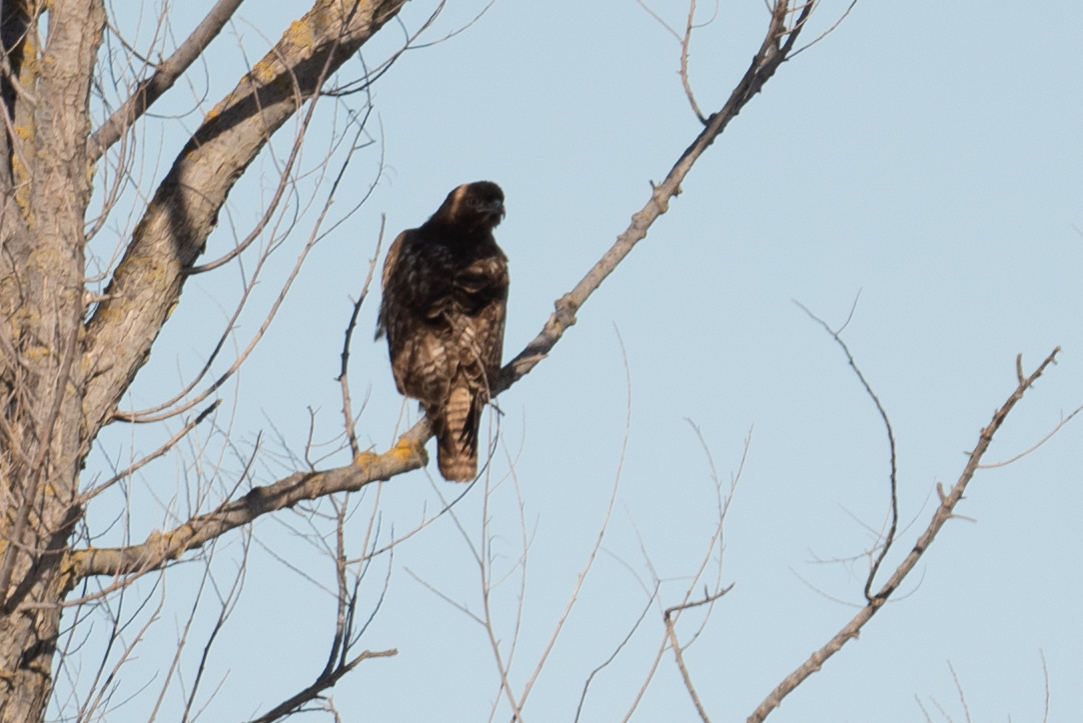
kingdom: Animalia
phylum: Chordata
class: Aves
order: Accipitriformes
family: Accipitridae
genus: Buteo
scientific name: Buteo jamaicensis
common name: Red-tailed hawk
